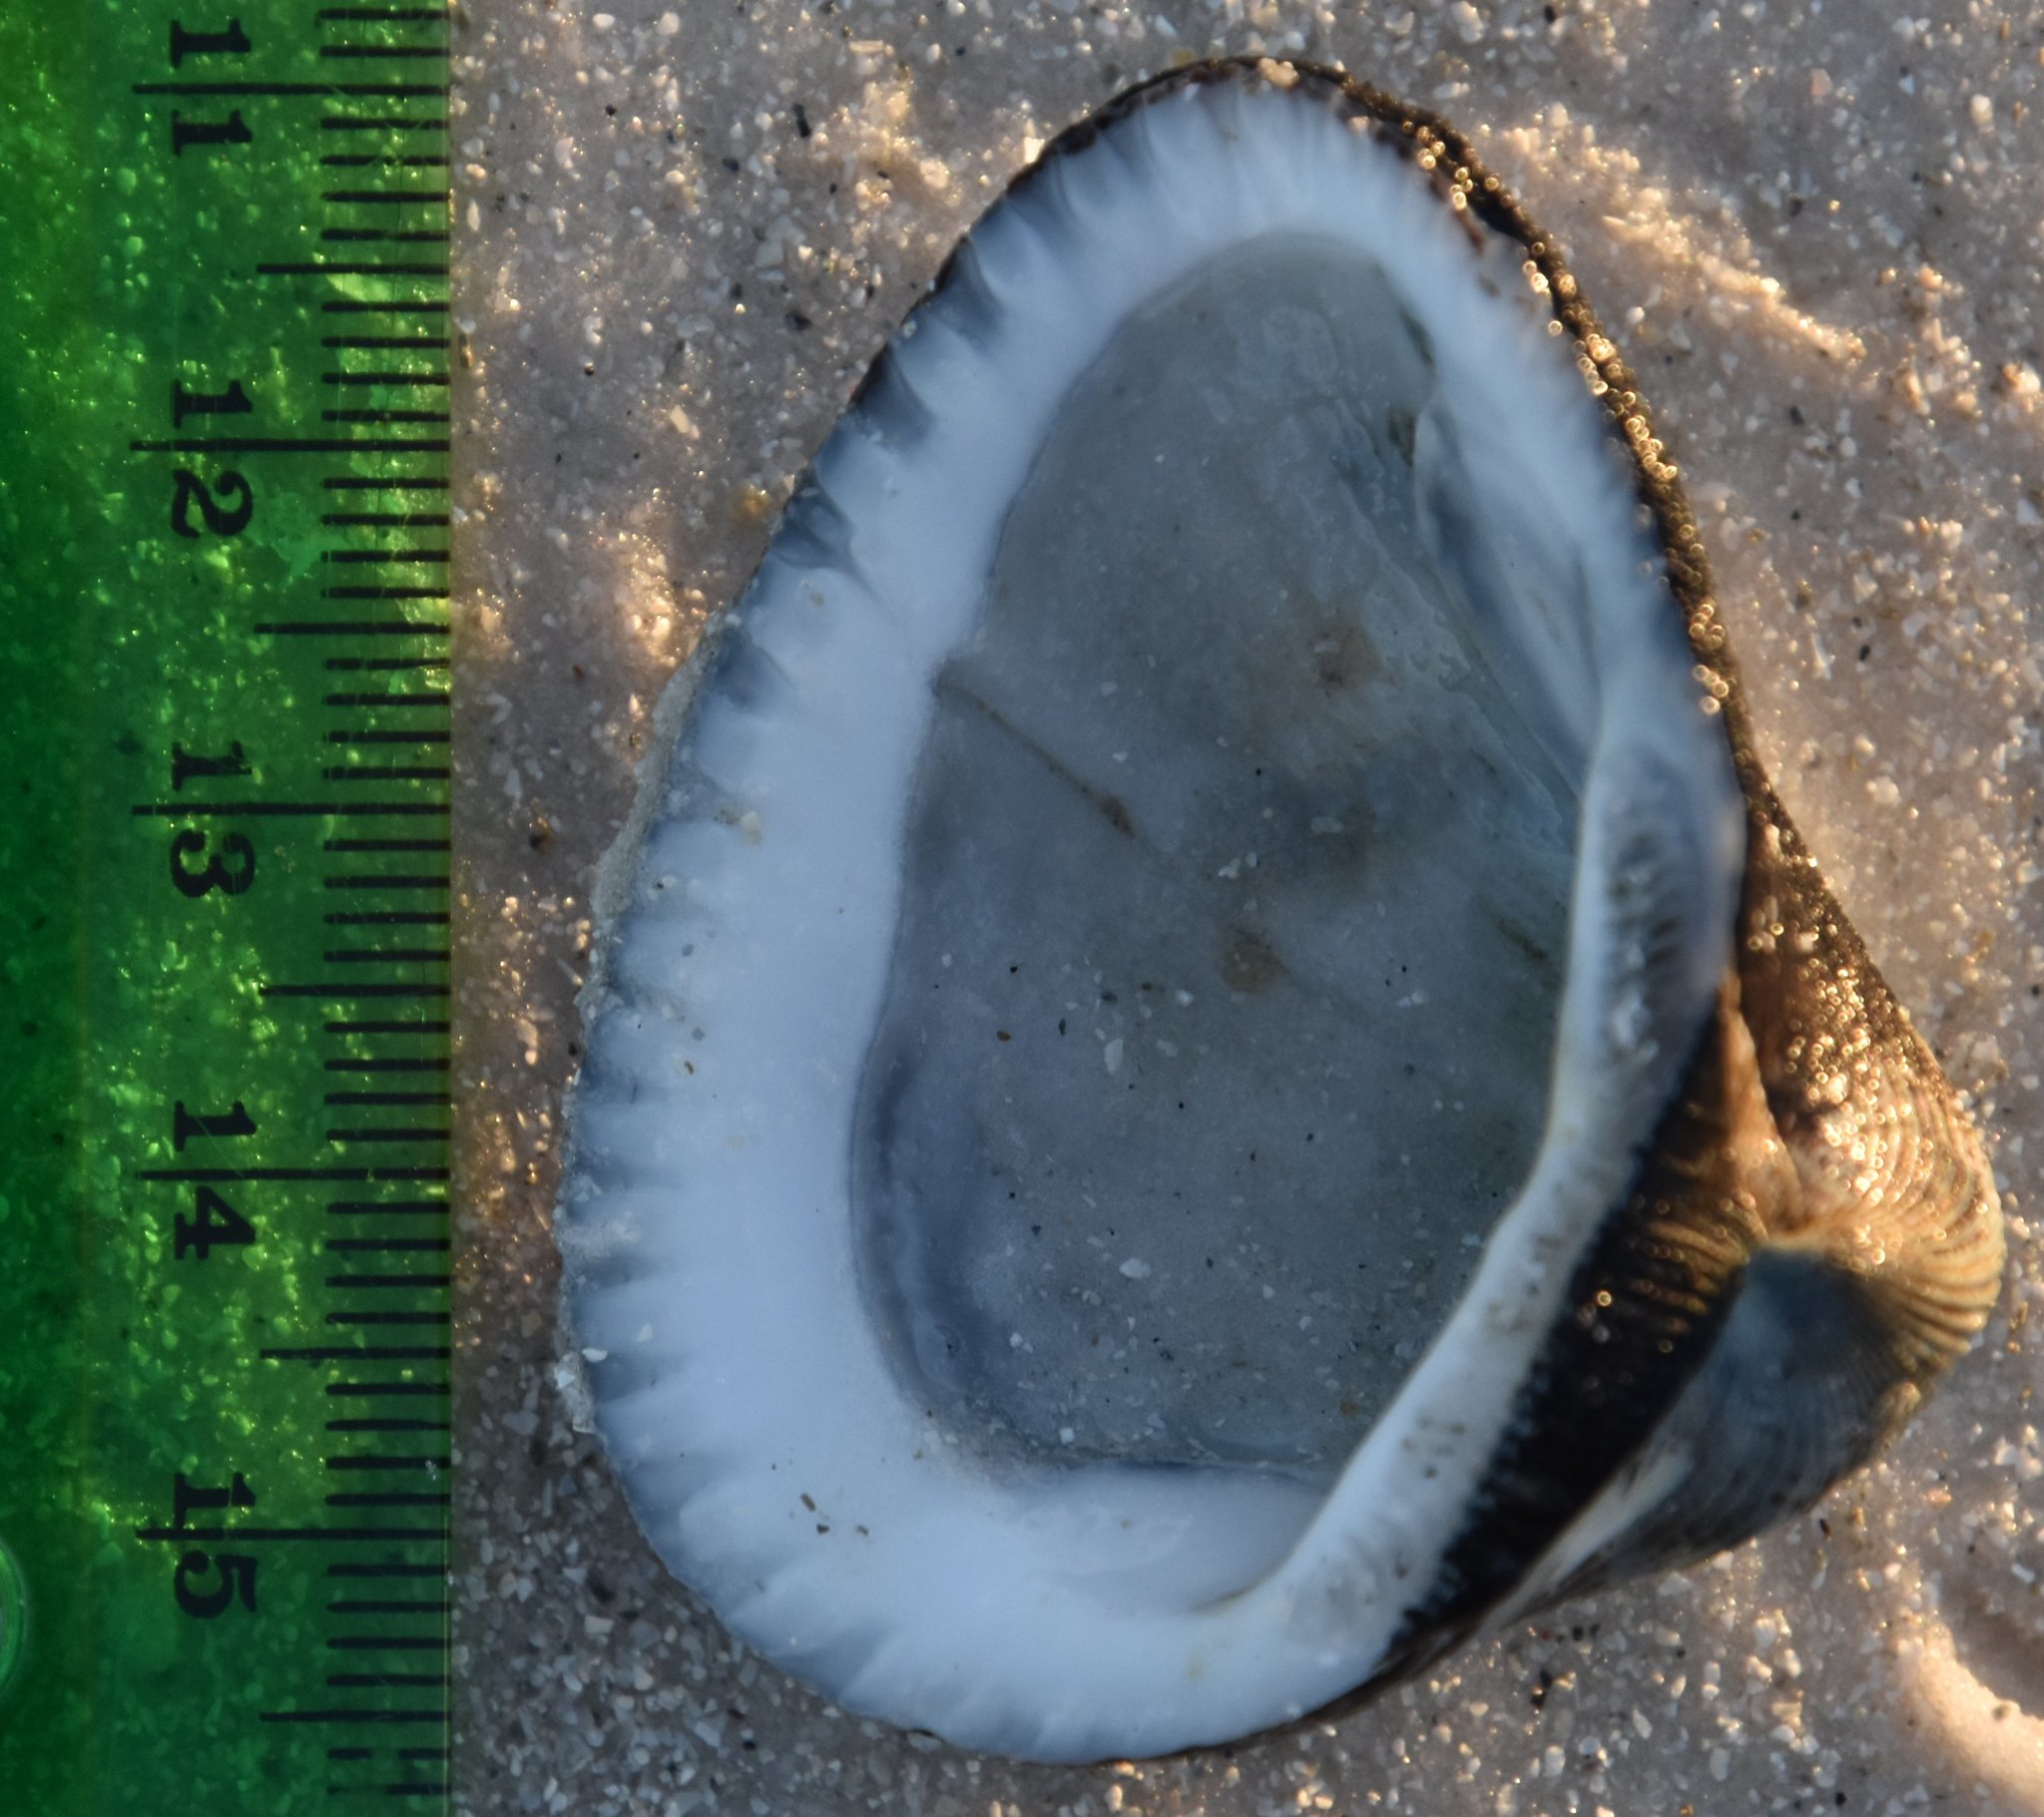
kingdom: Animalia
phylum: Mollusca
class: Bivalvia
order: Arcida
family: Noetiidae
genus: Noetia
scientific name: Noetia ponderosa
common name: Ponderous ark
